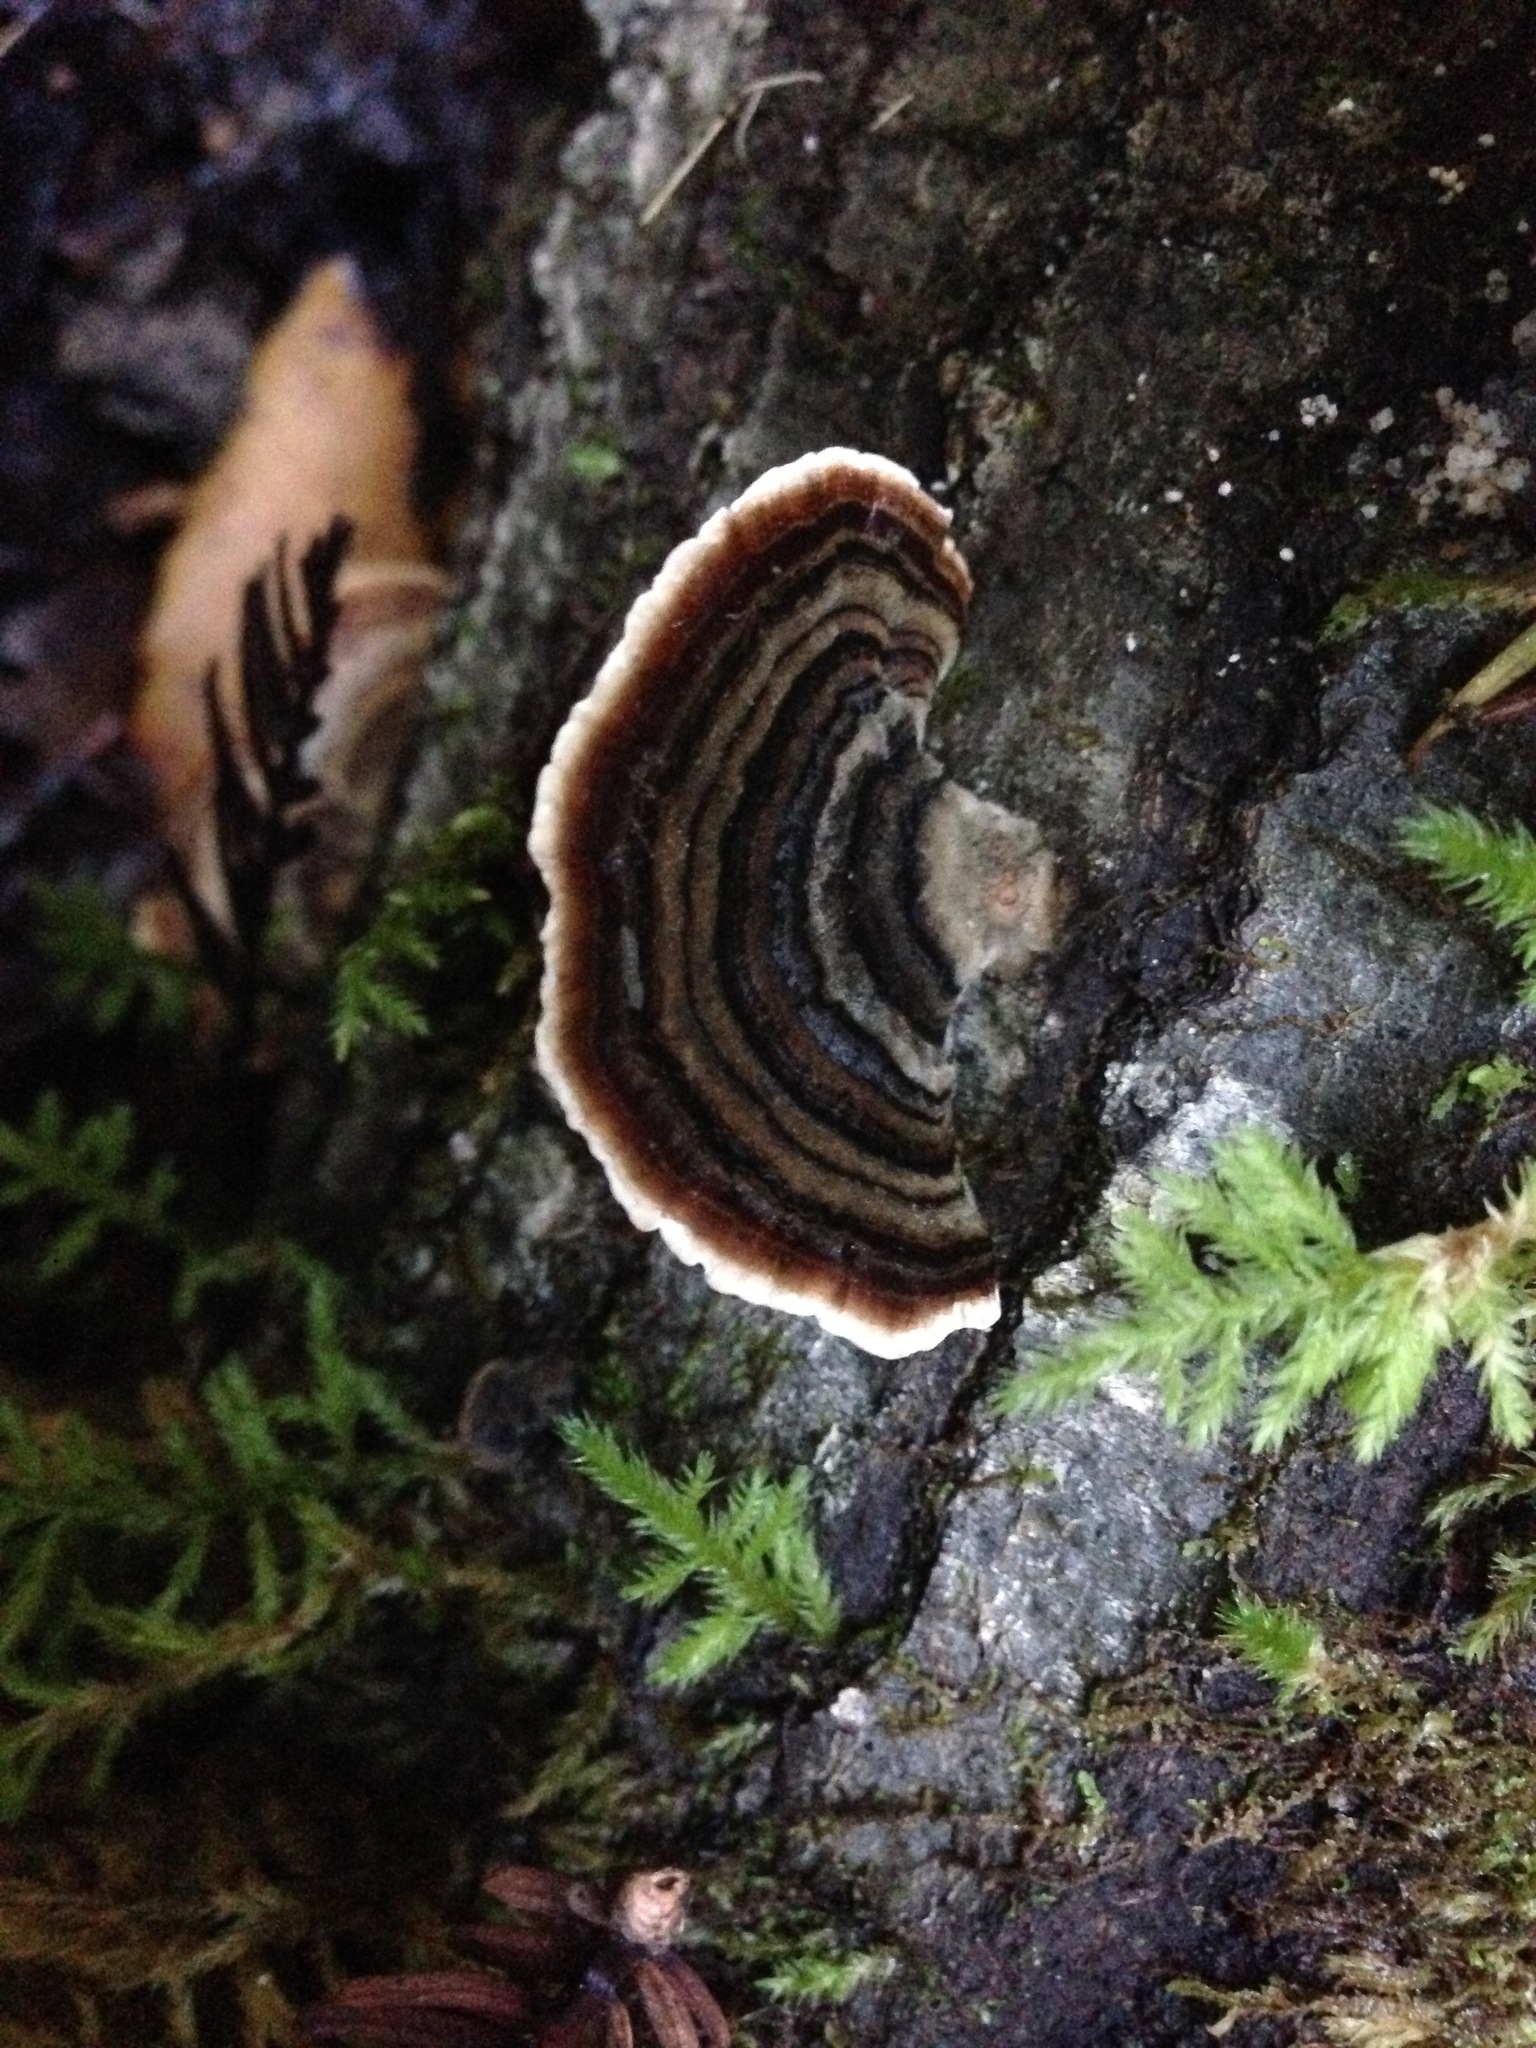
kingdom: Fungi
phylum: Basidiomycota
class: Agaricomycetes
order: Polyporales
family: Polyporaceae
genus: Trametes
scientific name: Trametes versicolor
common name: Turkeytail
